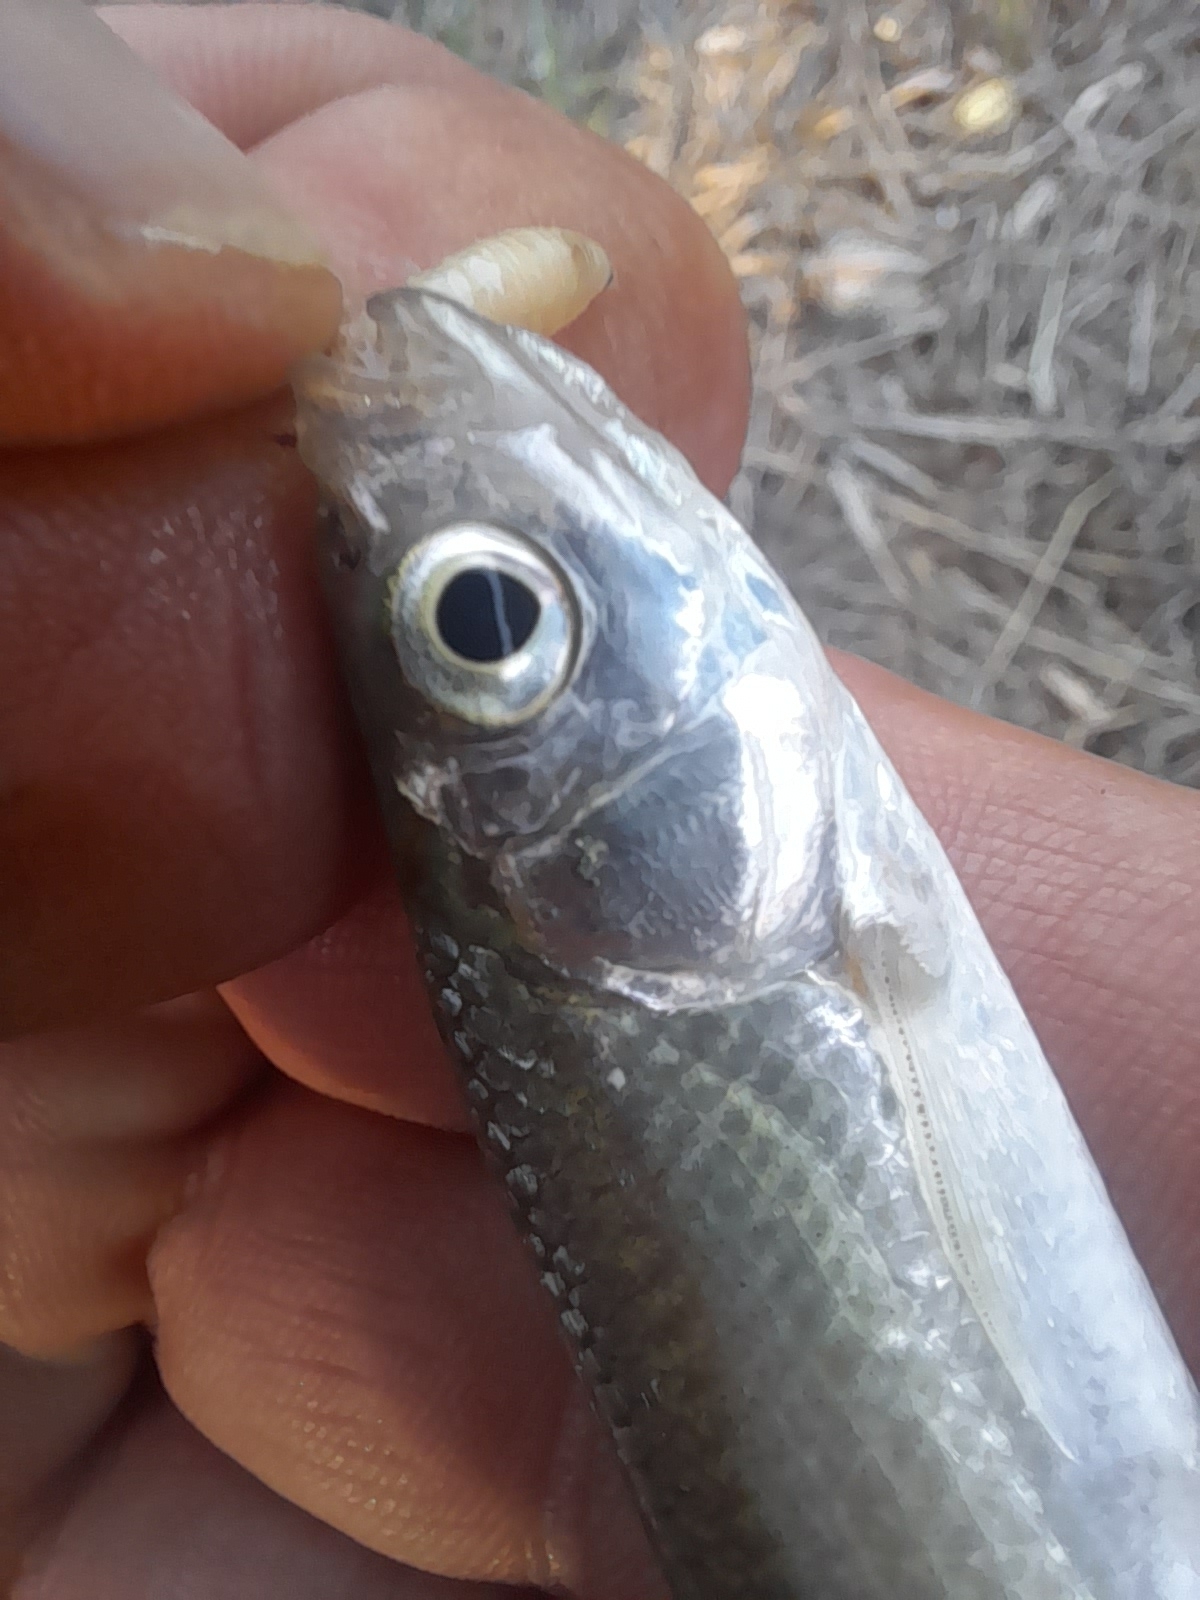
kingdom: Animalia
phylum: Chordata
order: Cypriniformes
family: Cyprinidae
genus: Alburnus
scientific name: Alburnus arborella
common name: Alborella
